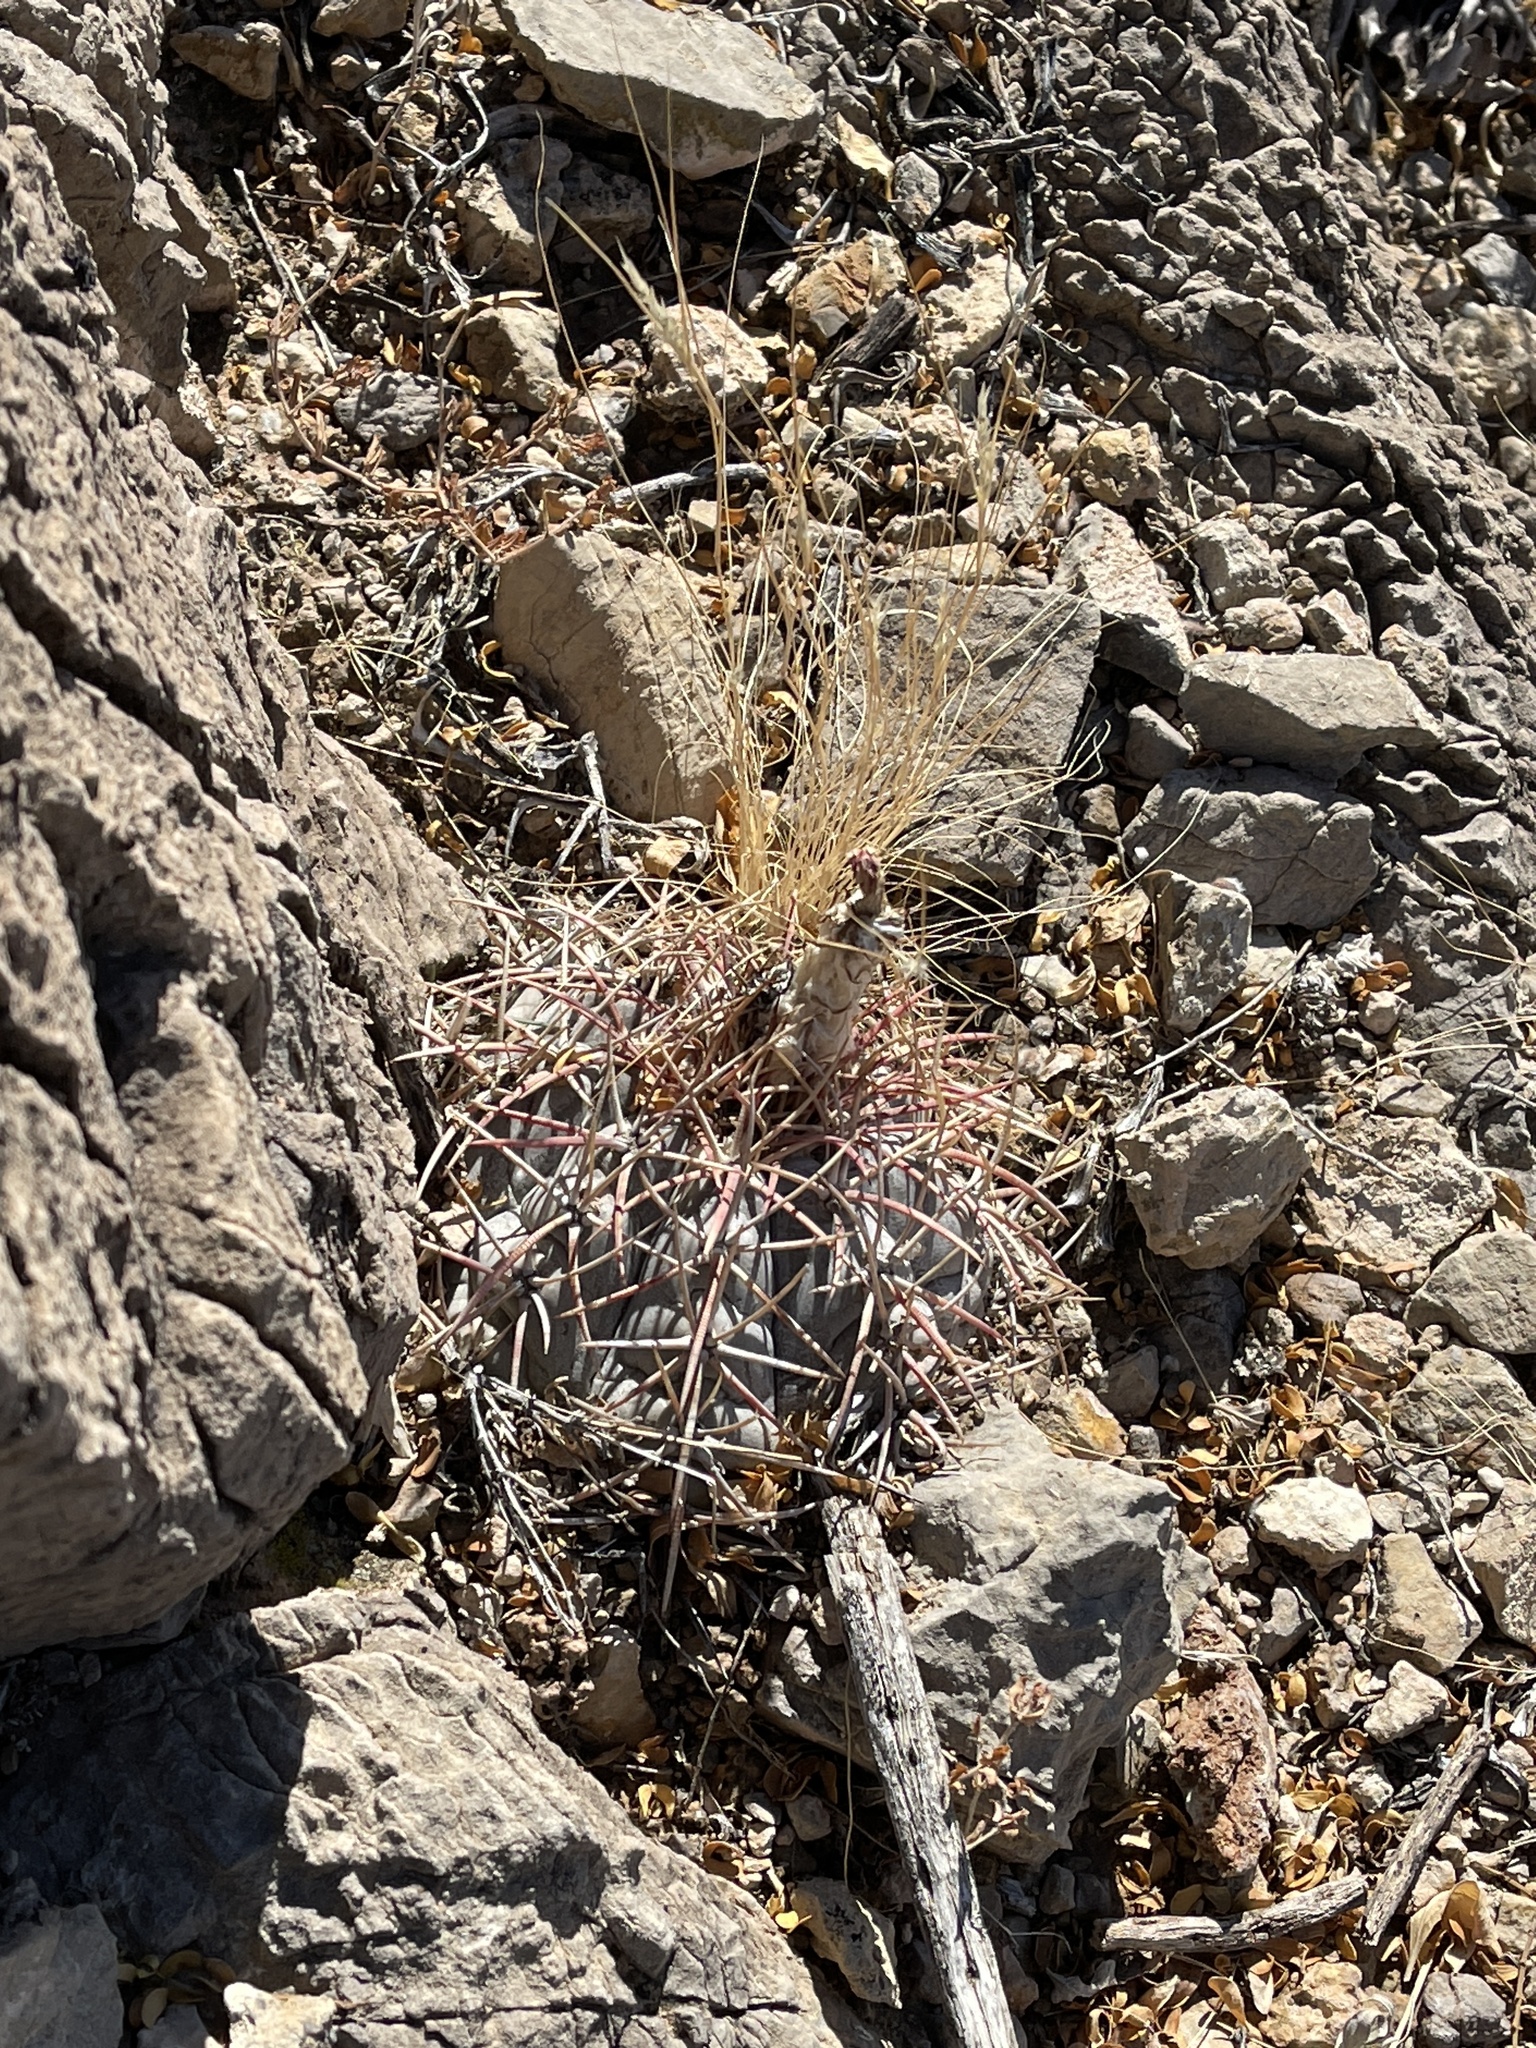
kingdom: Plantae
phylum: Tracheophyta
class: Magnoliopsida
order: Caryophyllales
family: Cactaceae
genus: Echinocactus
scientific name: Echinocactus horizonthalonius
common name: Devilshead
